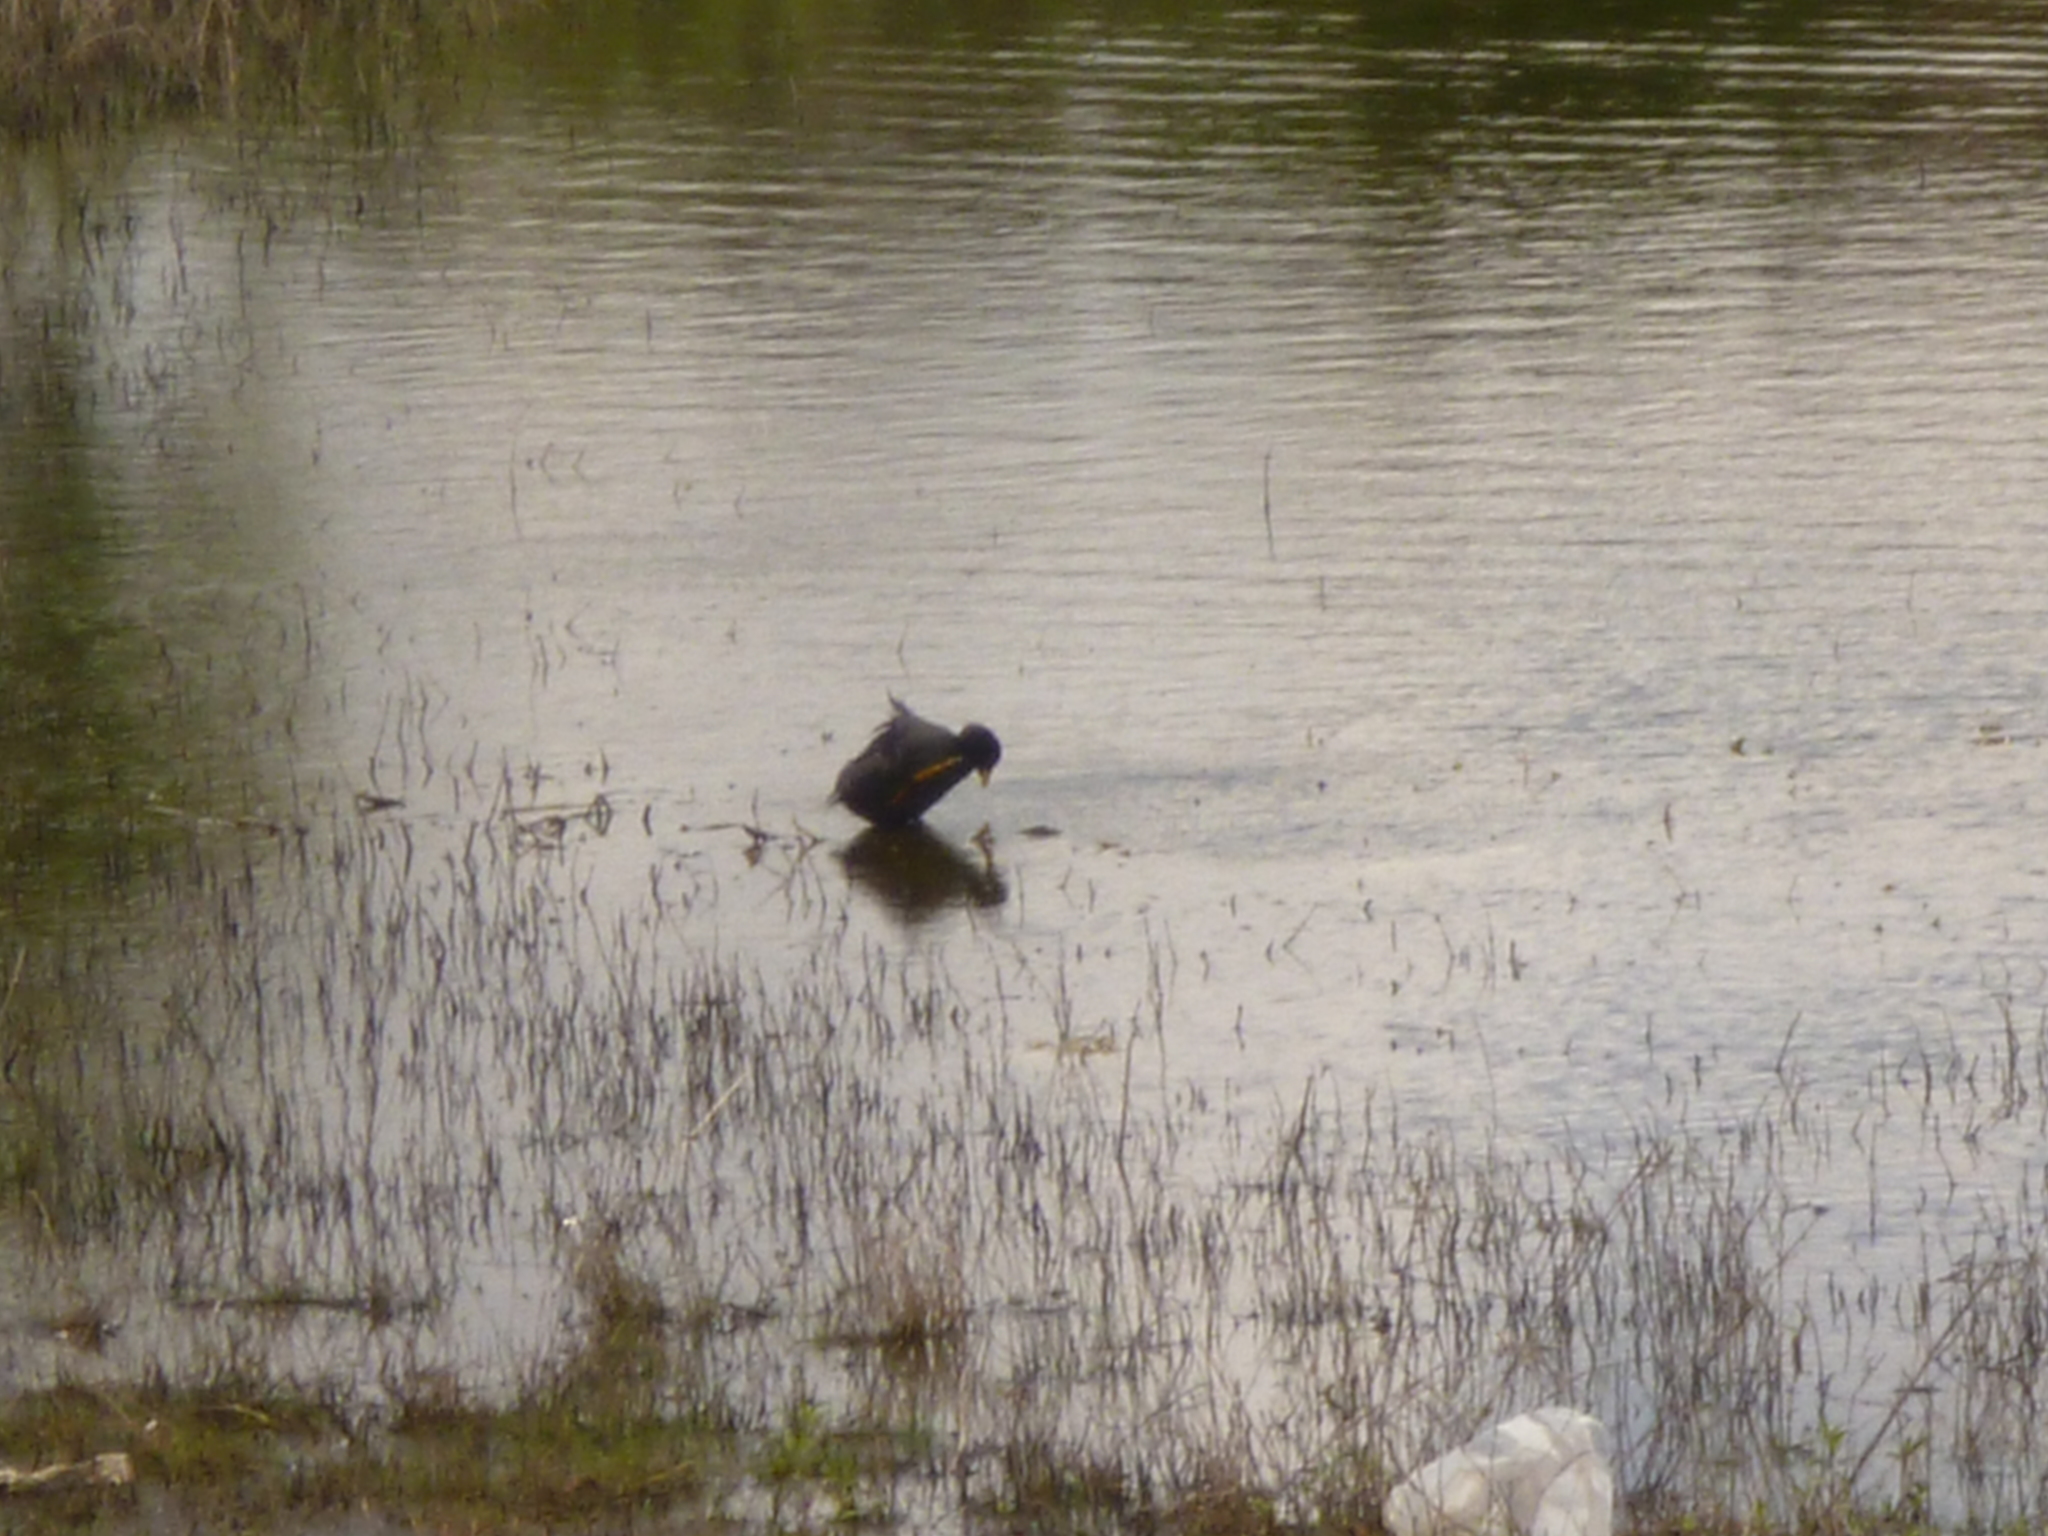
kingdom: Animalia
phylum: Chordata
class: Aves
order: Gruiformes
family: Rallidae
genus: Fulica
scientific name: Fulica armillata
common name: Red-gartered coot
